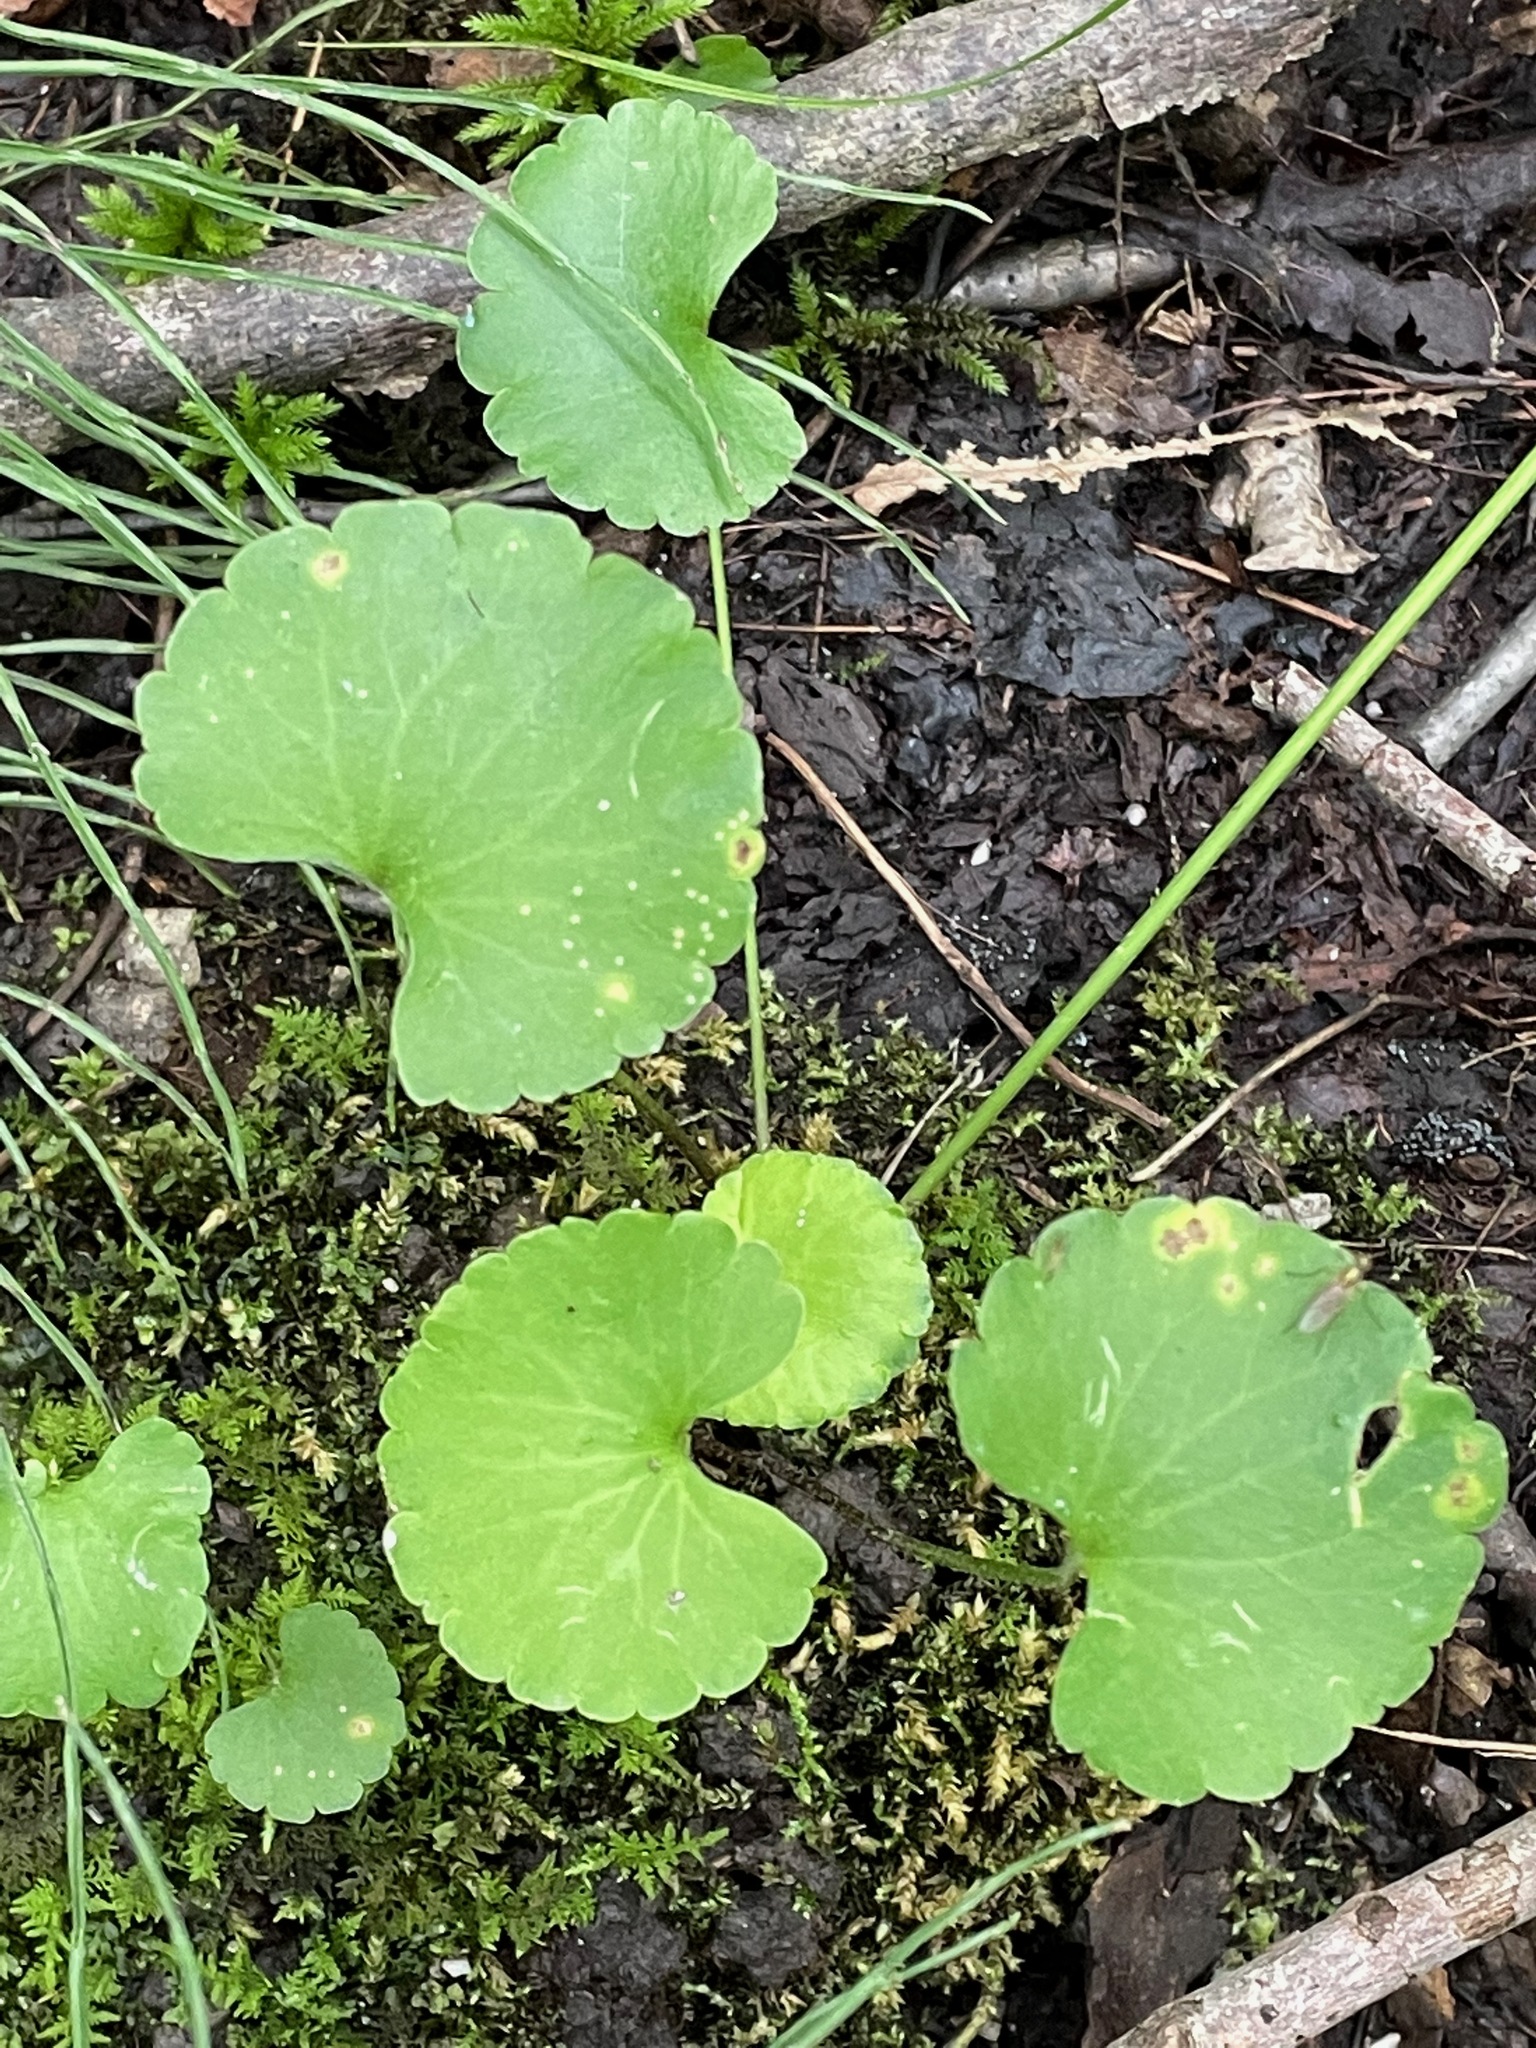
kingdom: Plantae
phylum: Tracheophyta
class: Magnoliopsida
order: Ranunculales
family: Ranunculaceae
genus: Ranunculus
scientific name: Ranunculus abortivus
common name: Early wood buttercup
